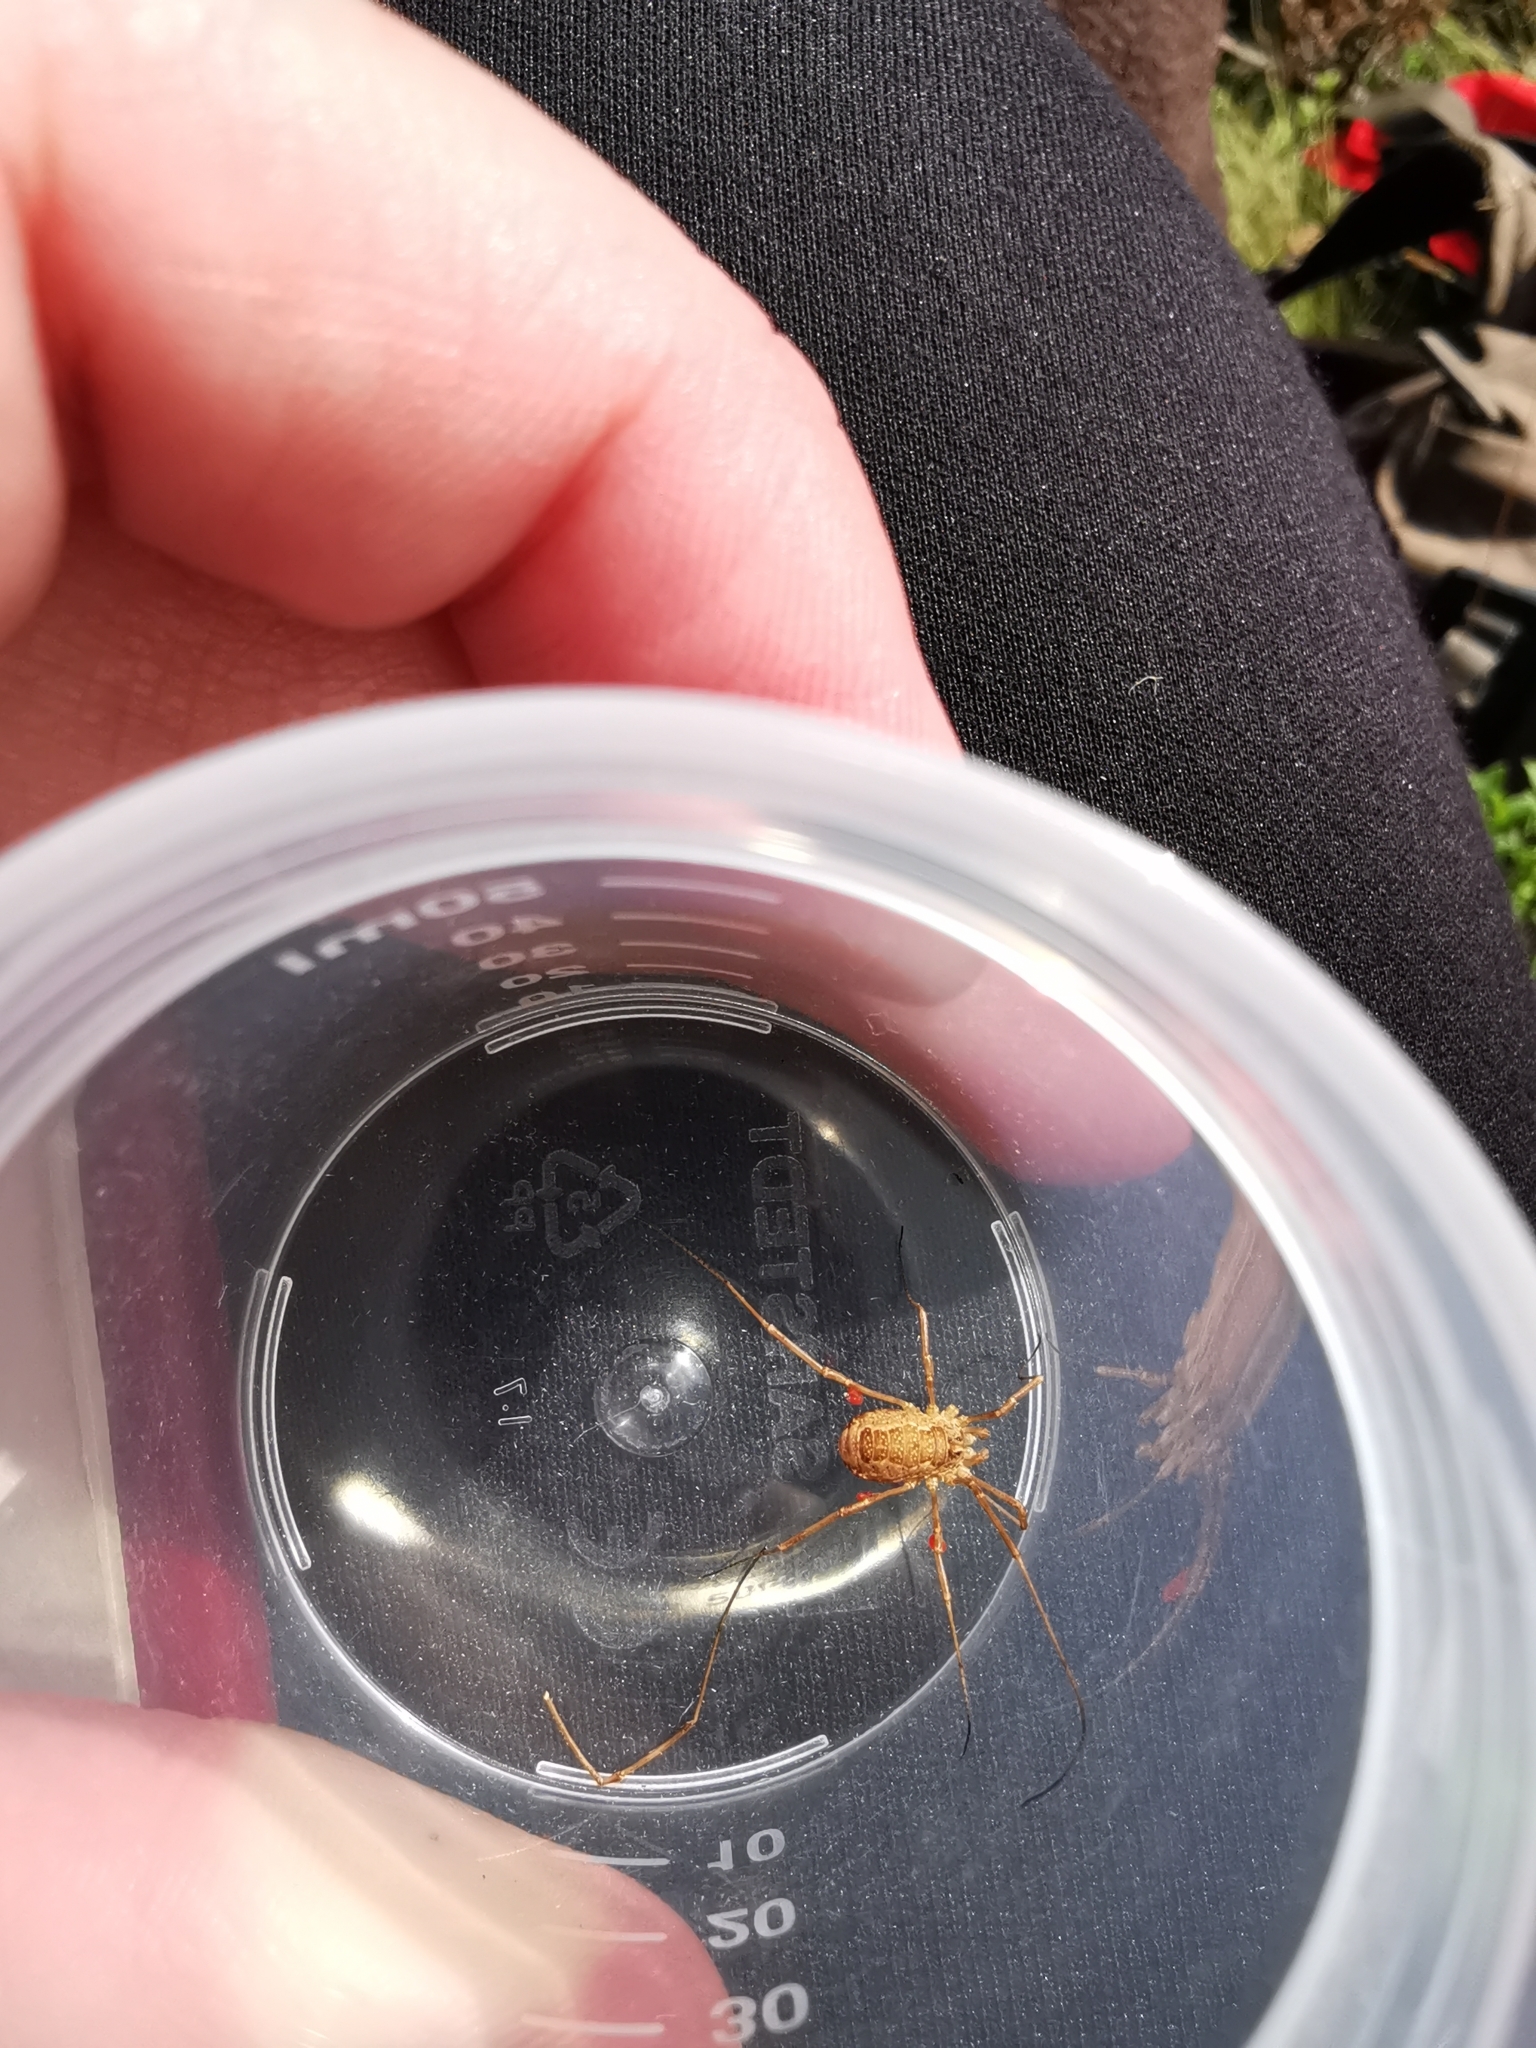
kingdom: Animalia
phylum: Arthropoda
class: Arachnida
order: Opiliones
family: Phalangiidae
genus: Rilaena
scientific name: Rilaena triangularis
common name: Spring harvestman
